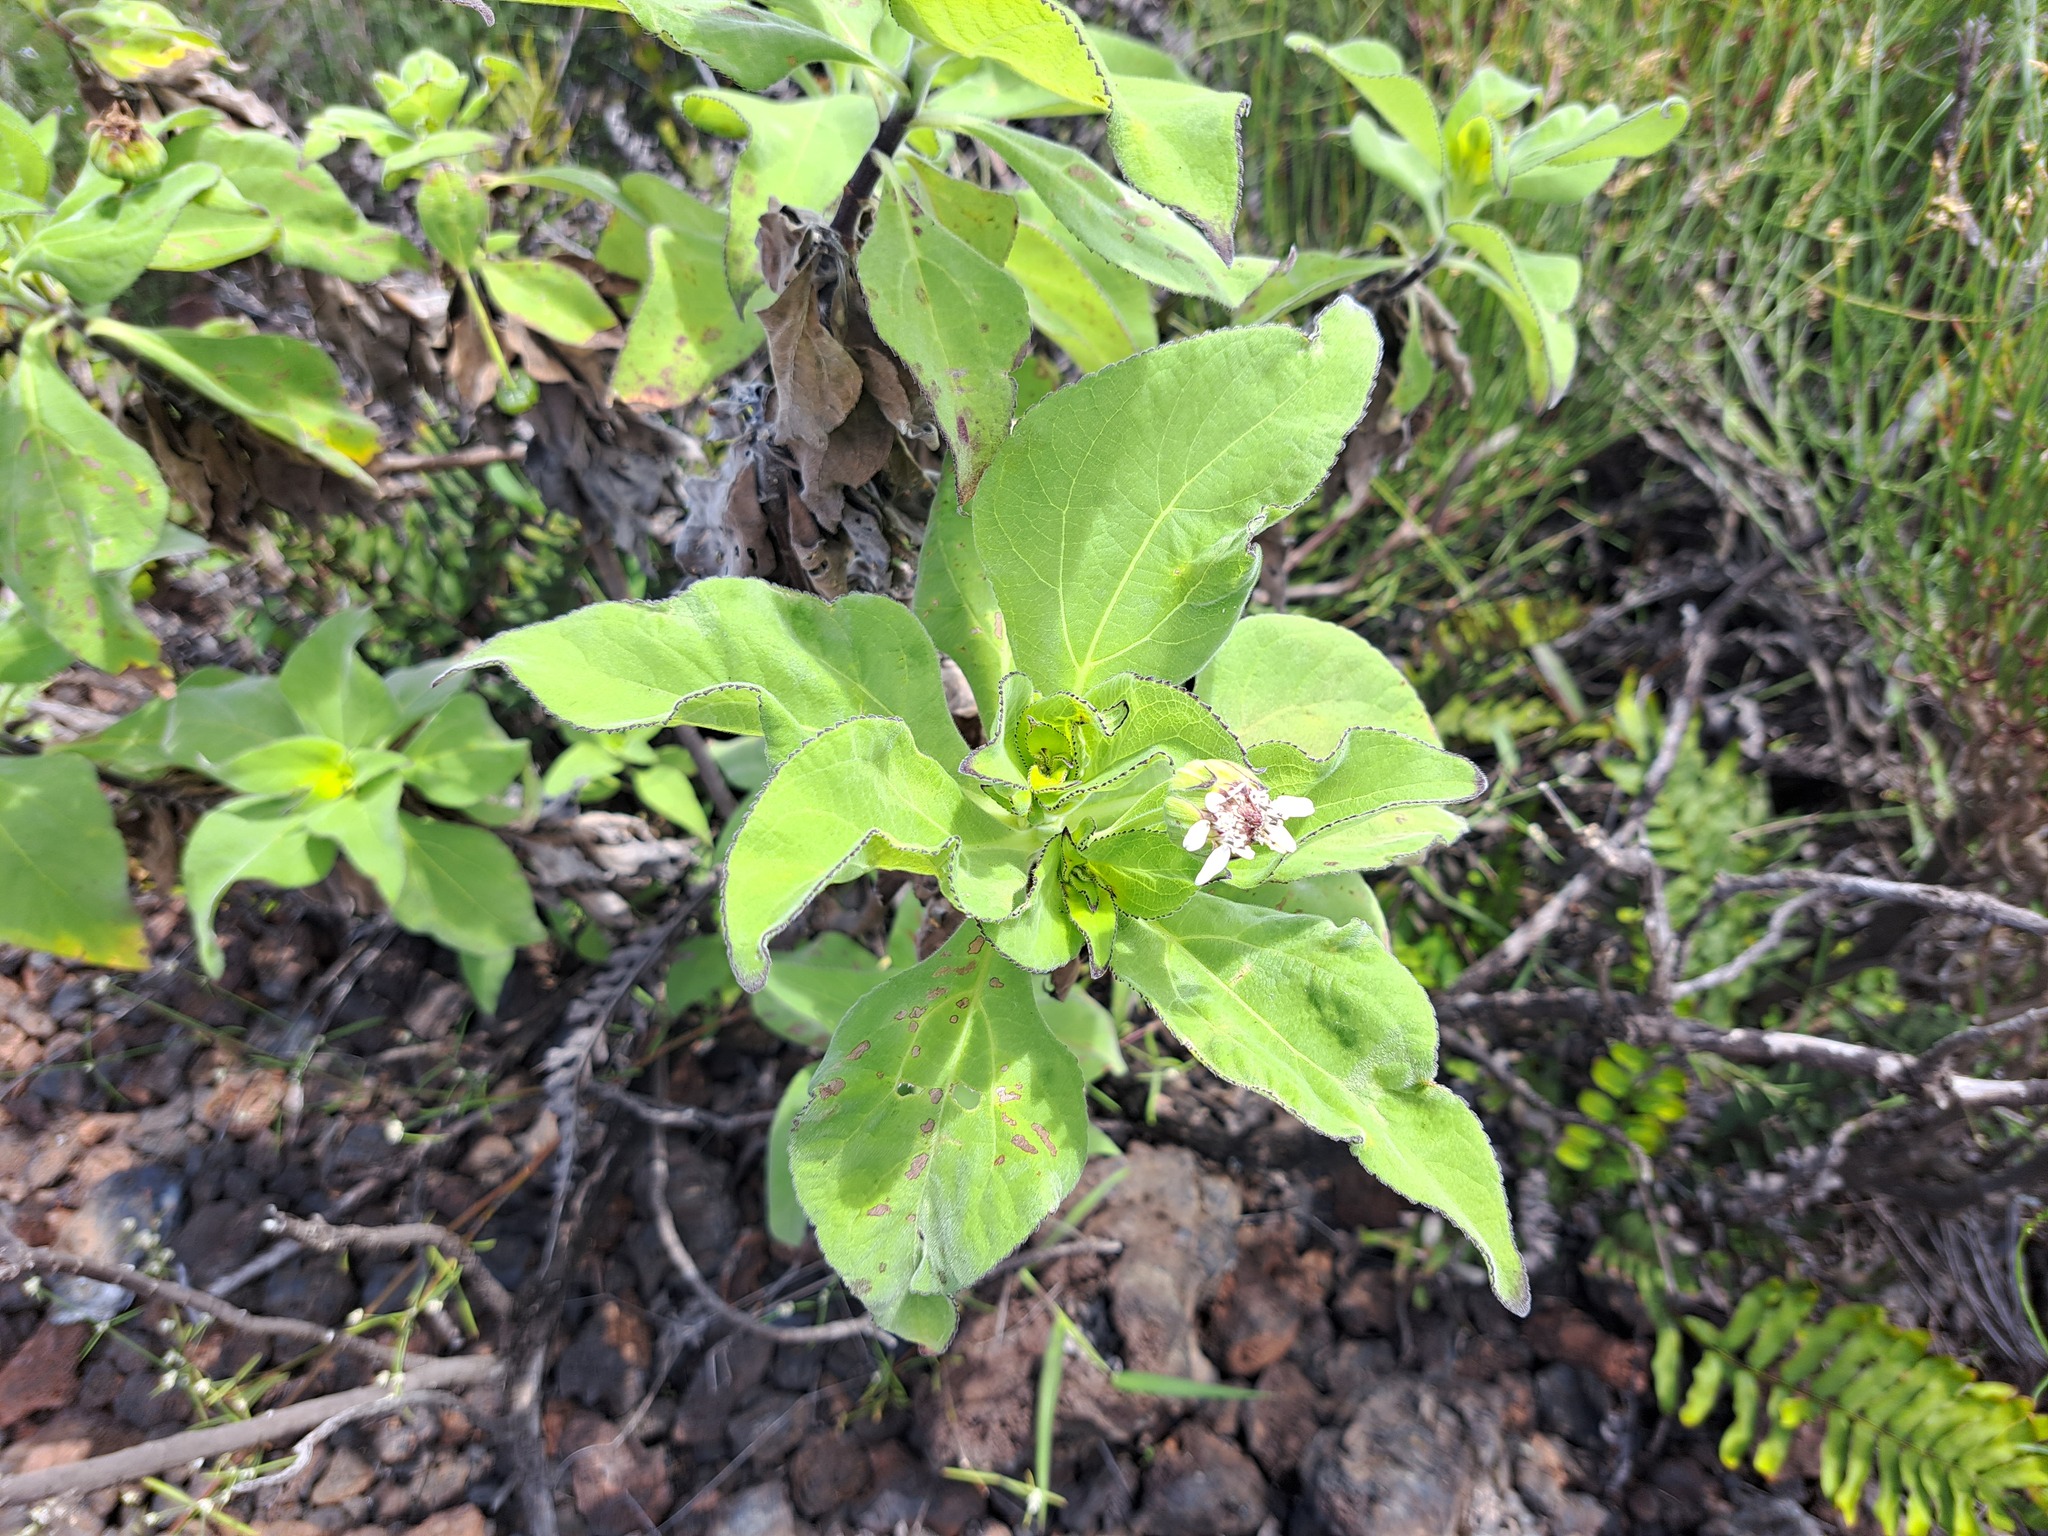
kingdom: Plantae
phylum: Tracheophyta
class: Magnoliopsida
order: Asterales
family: Asteraceae
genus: Scalesia
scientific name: Scalesia affinis
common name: Radiate-headed scalesia
